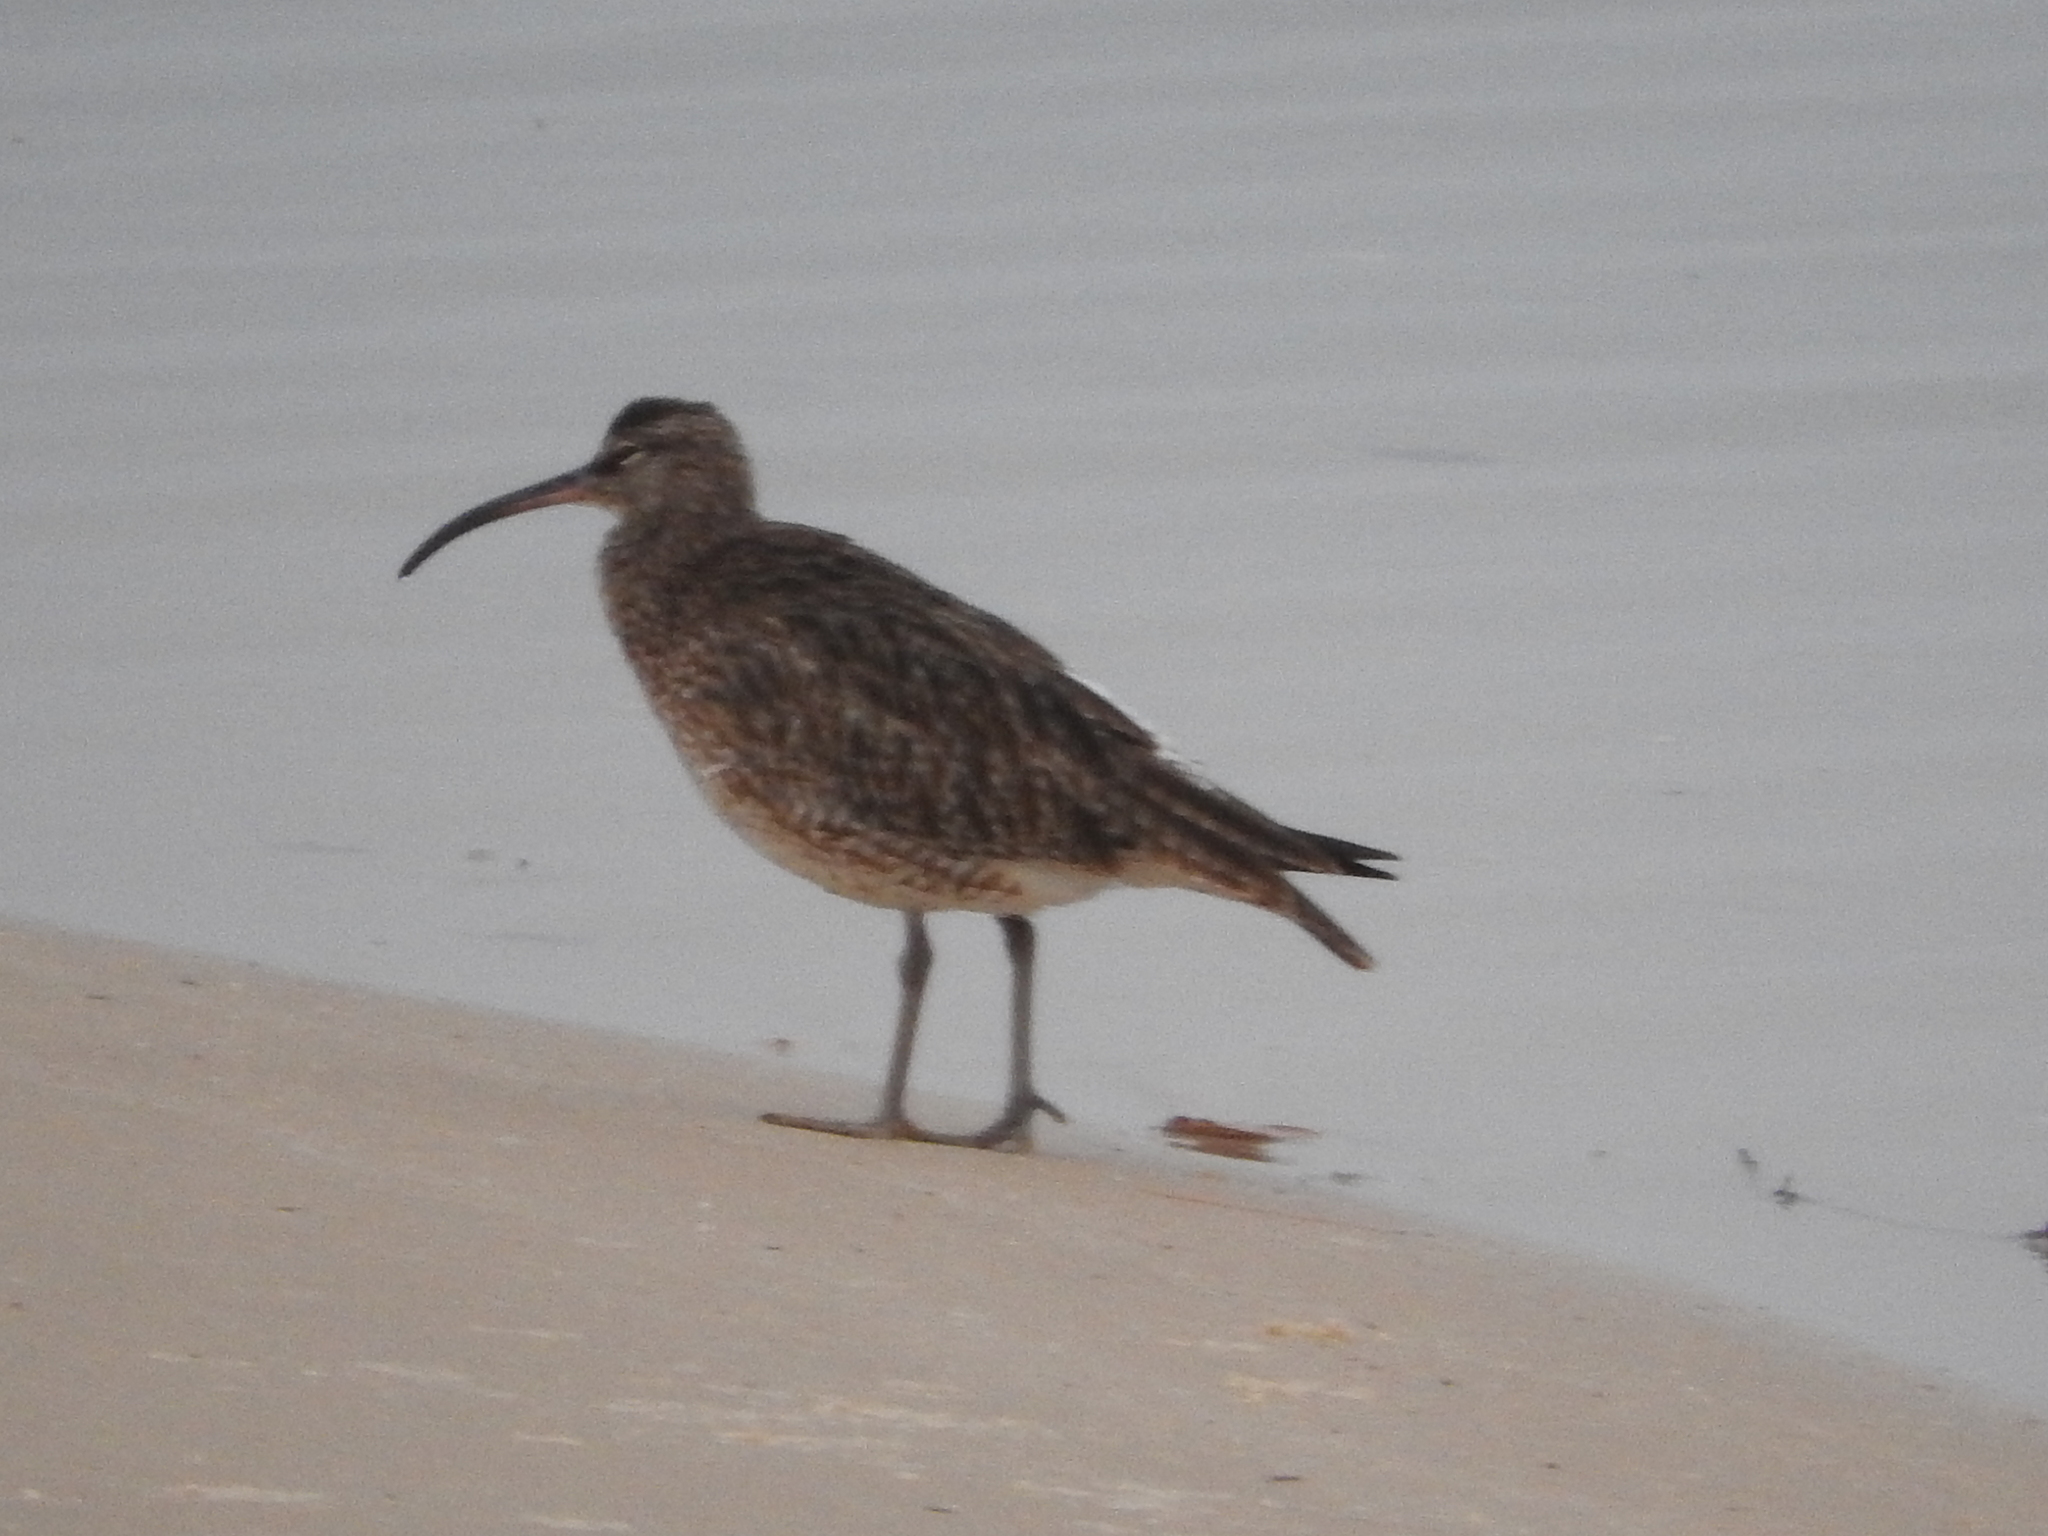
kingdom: Animalia
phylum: Chordata
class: Aves
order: Charadriiformes
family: Scolopacidae
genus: Numenius
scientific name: Numenius phaeopus
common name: Whimbrel
